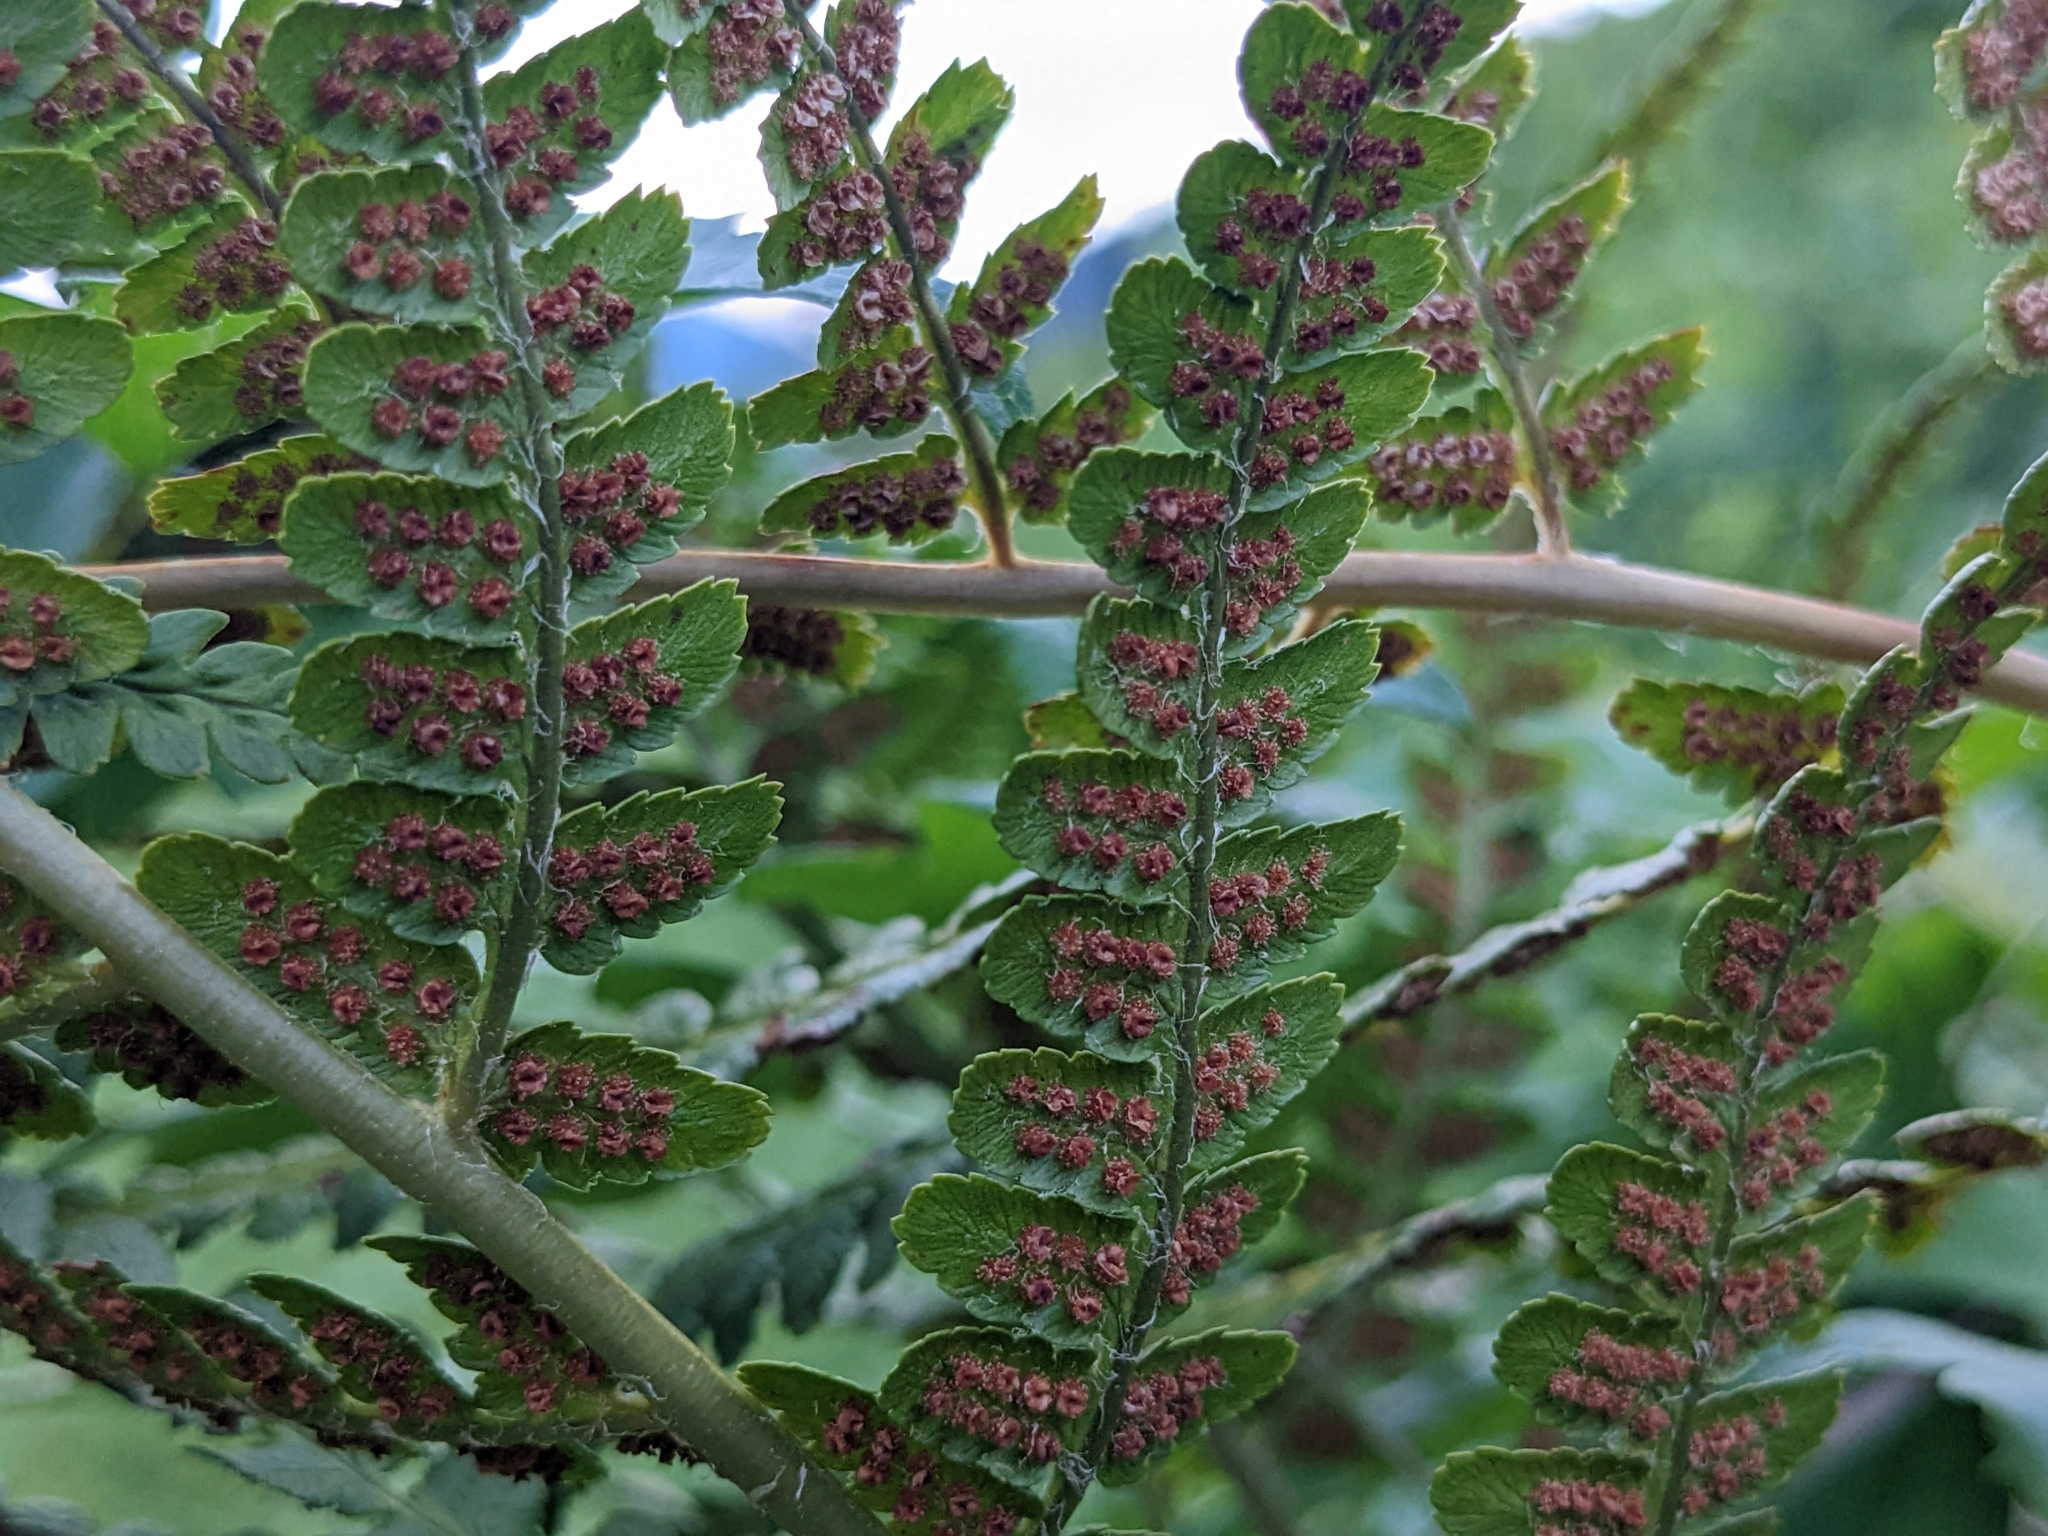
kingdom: Plantae
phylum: Tracheophyta
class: Polypodiopsida
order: Polypodiales
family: Dryopteridaceae
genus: Dryopteris
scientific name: Dryopteris filix-mas
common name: Male fern
